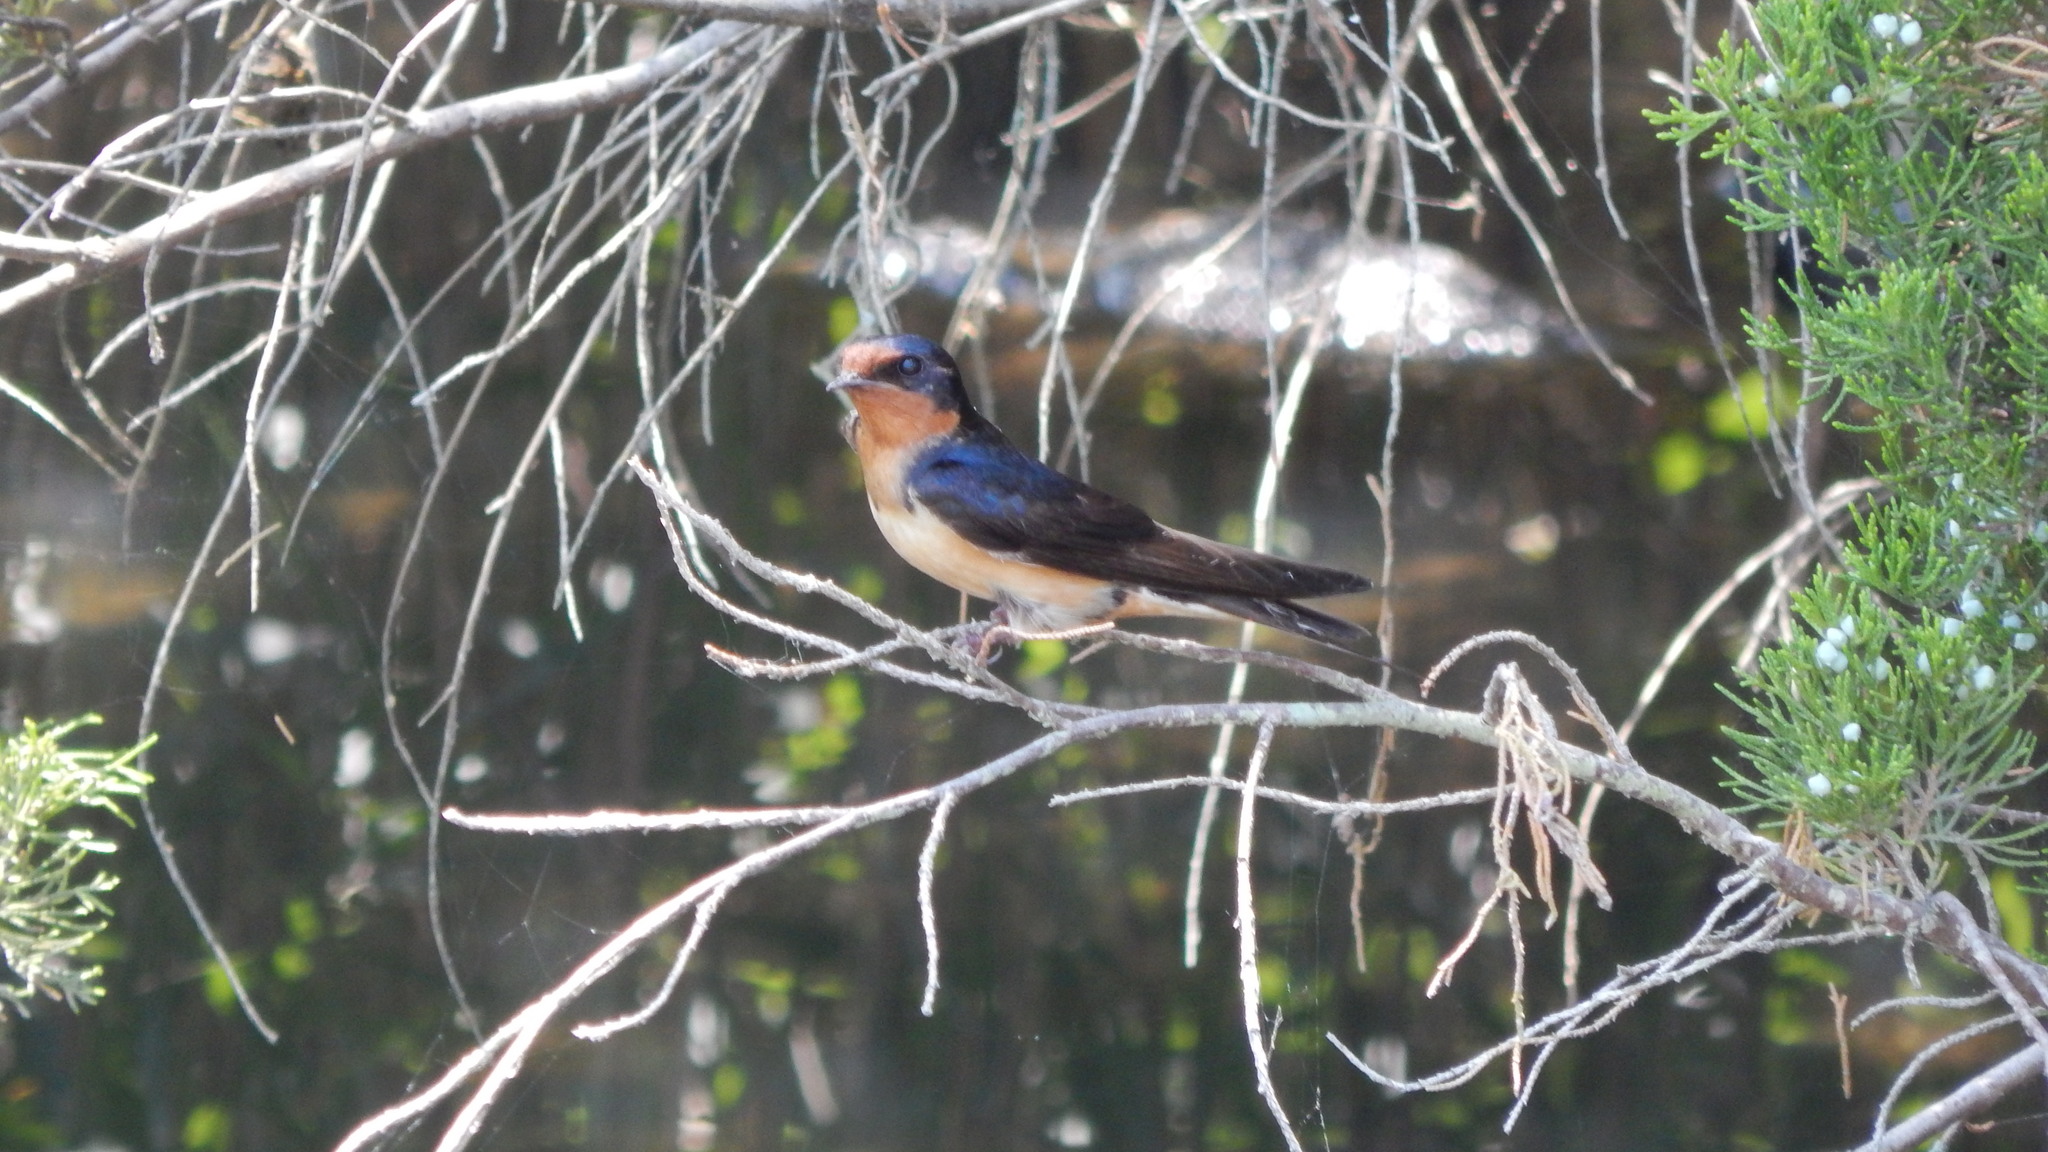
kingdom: Animalia
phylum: Chordata
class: Aves
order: Passeriformes
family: Hirundinidae
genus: Hirundo
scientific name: Hirundo rustica
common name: Barn swallow
